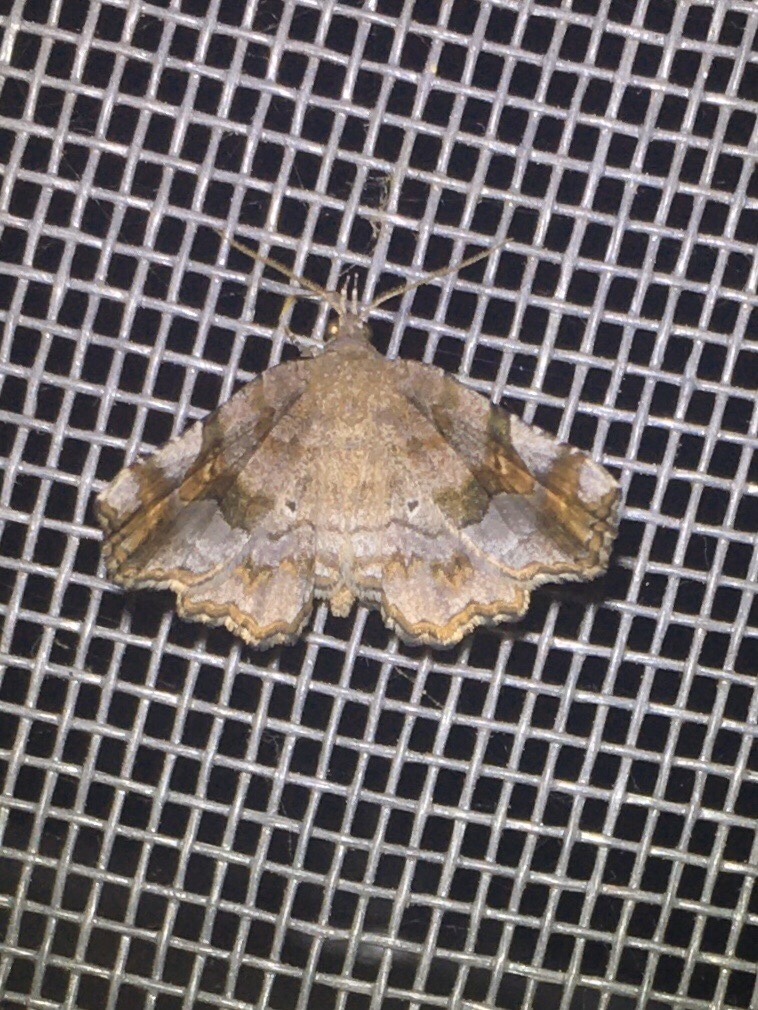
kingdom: Animalia
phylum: Arthropoda
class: Insecta
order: Lepidoptera
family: Erebidae
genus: Pangrapta
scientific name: Pangrapta decoralis
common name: Decorated owlet
